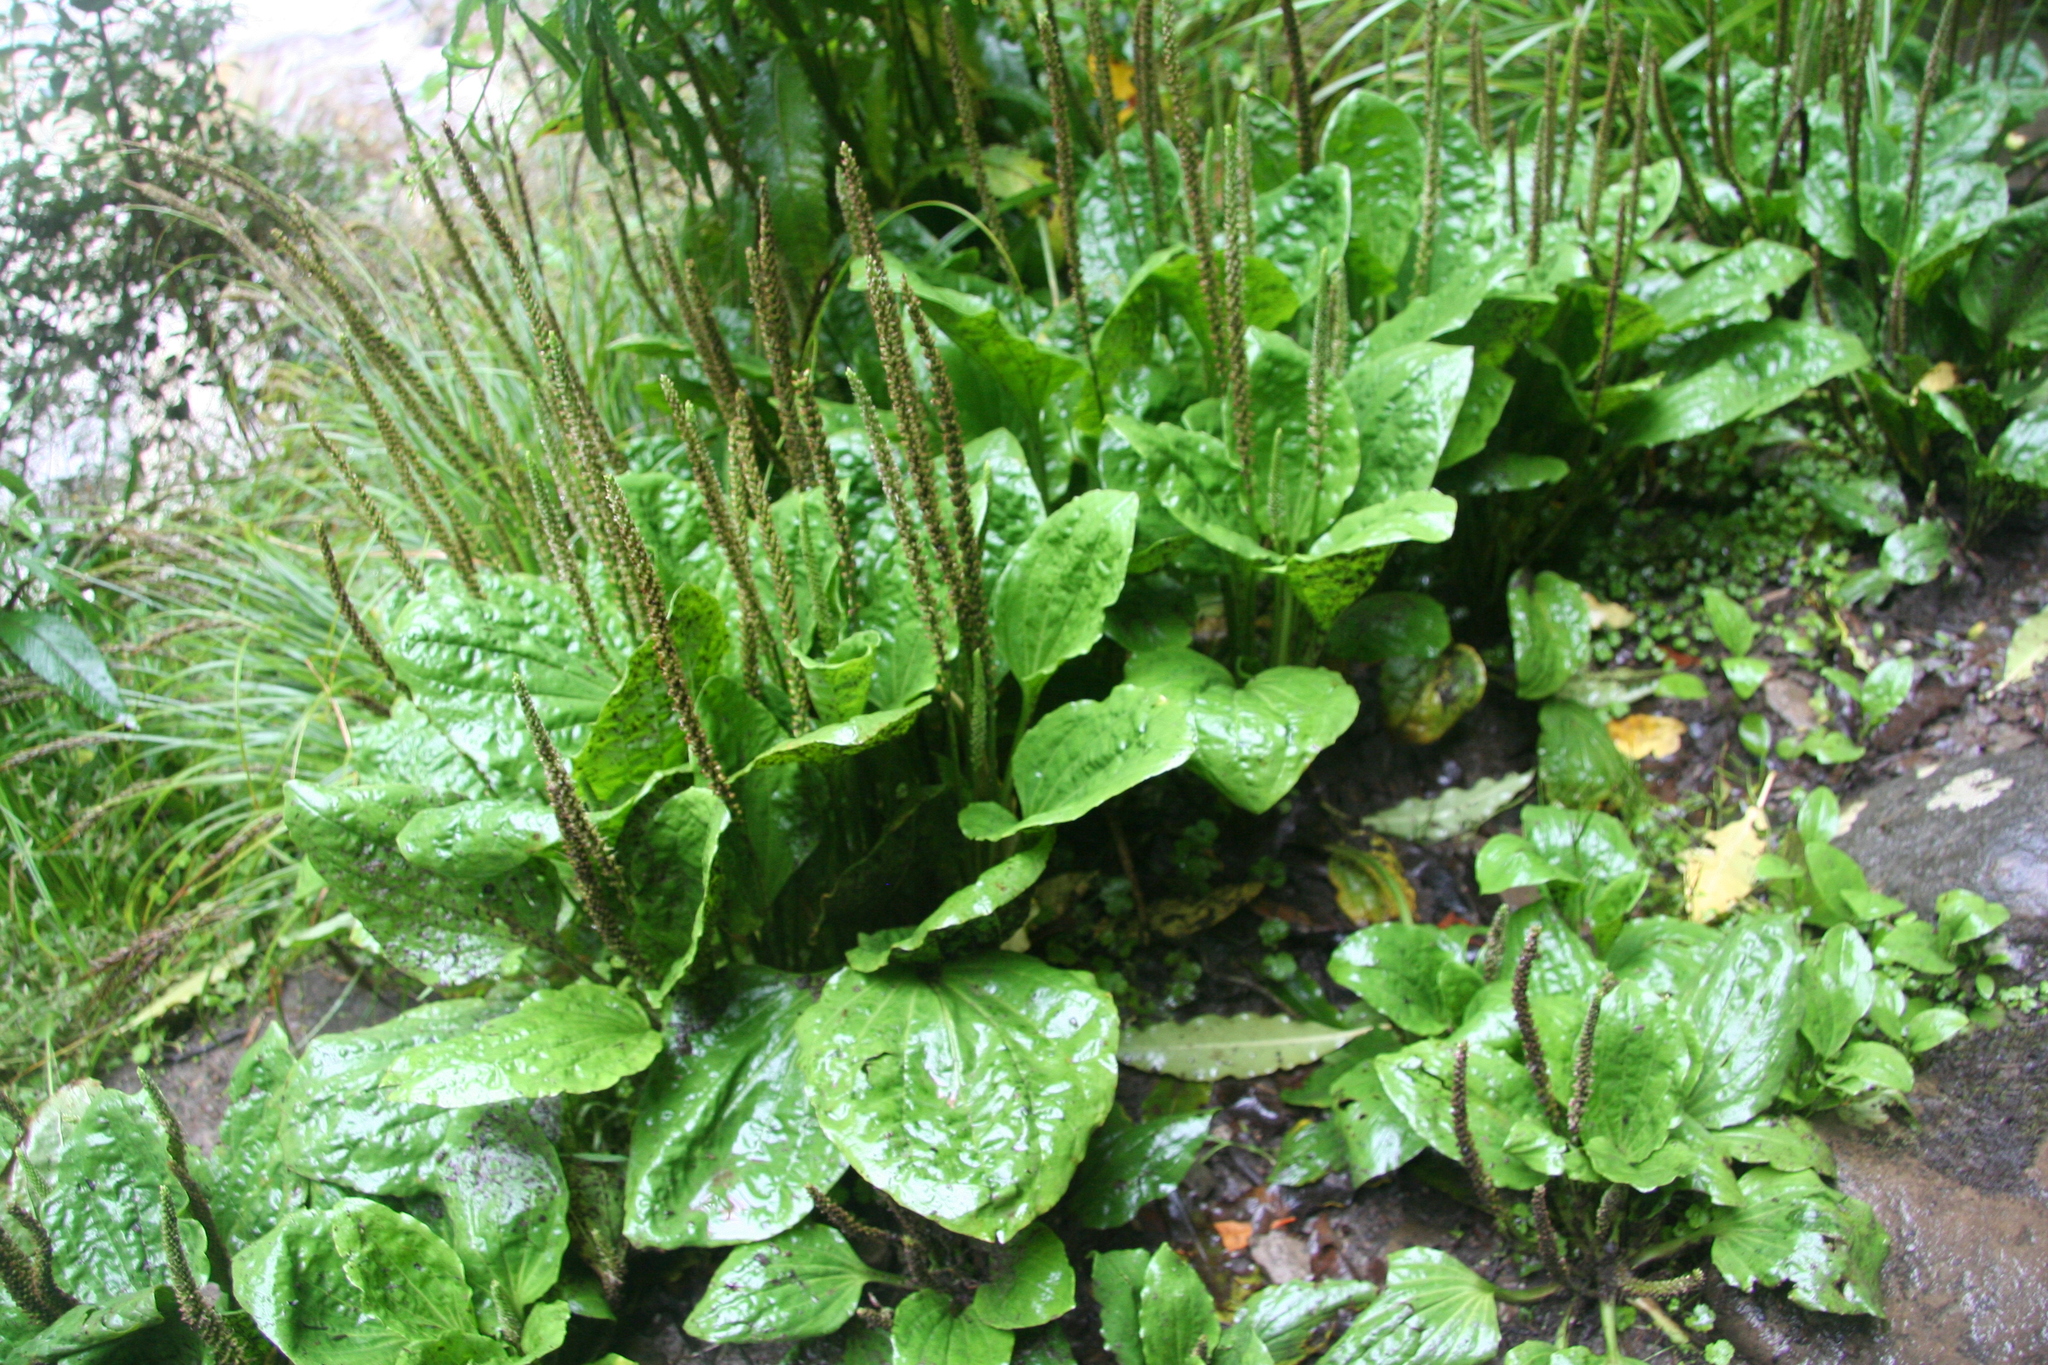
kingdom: Plantae
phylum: Tracheophyta
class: Magnoliopsida
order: Lamiales
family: Plantaginaceae
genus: Plantago
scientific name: Plantago major
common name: Common plantain
